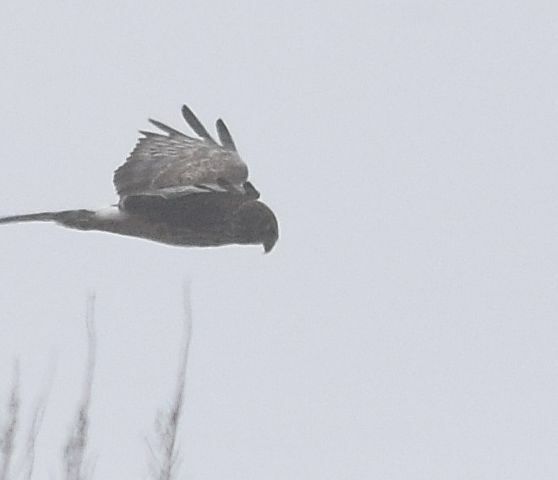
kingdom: Animalia
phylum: Chordata
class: Aves
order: Accipitriformes
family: Accipitridae
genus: Circus
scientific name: Circus cyaneus
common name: Hen harrier
